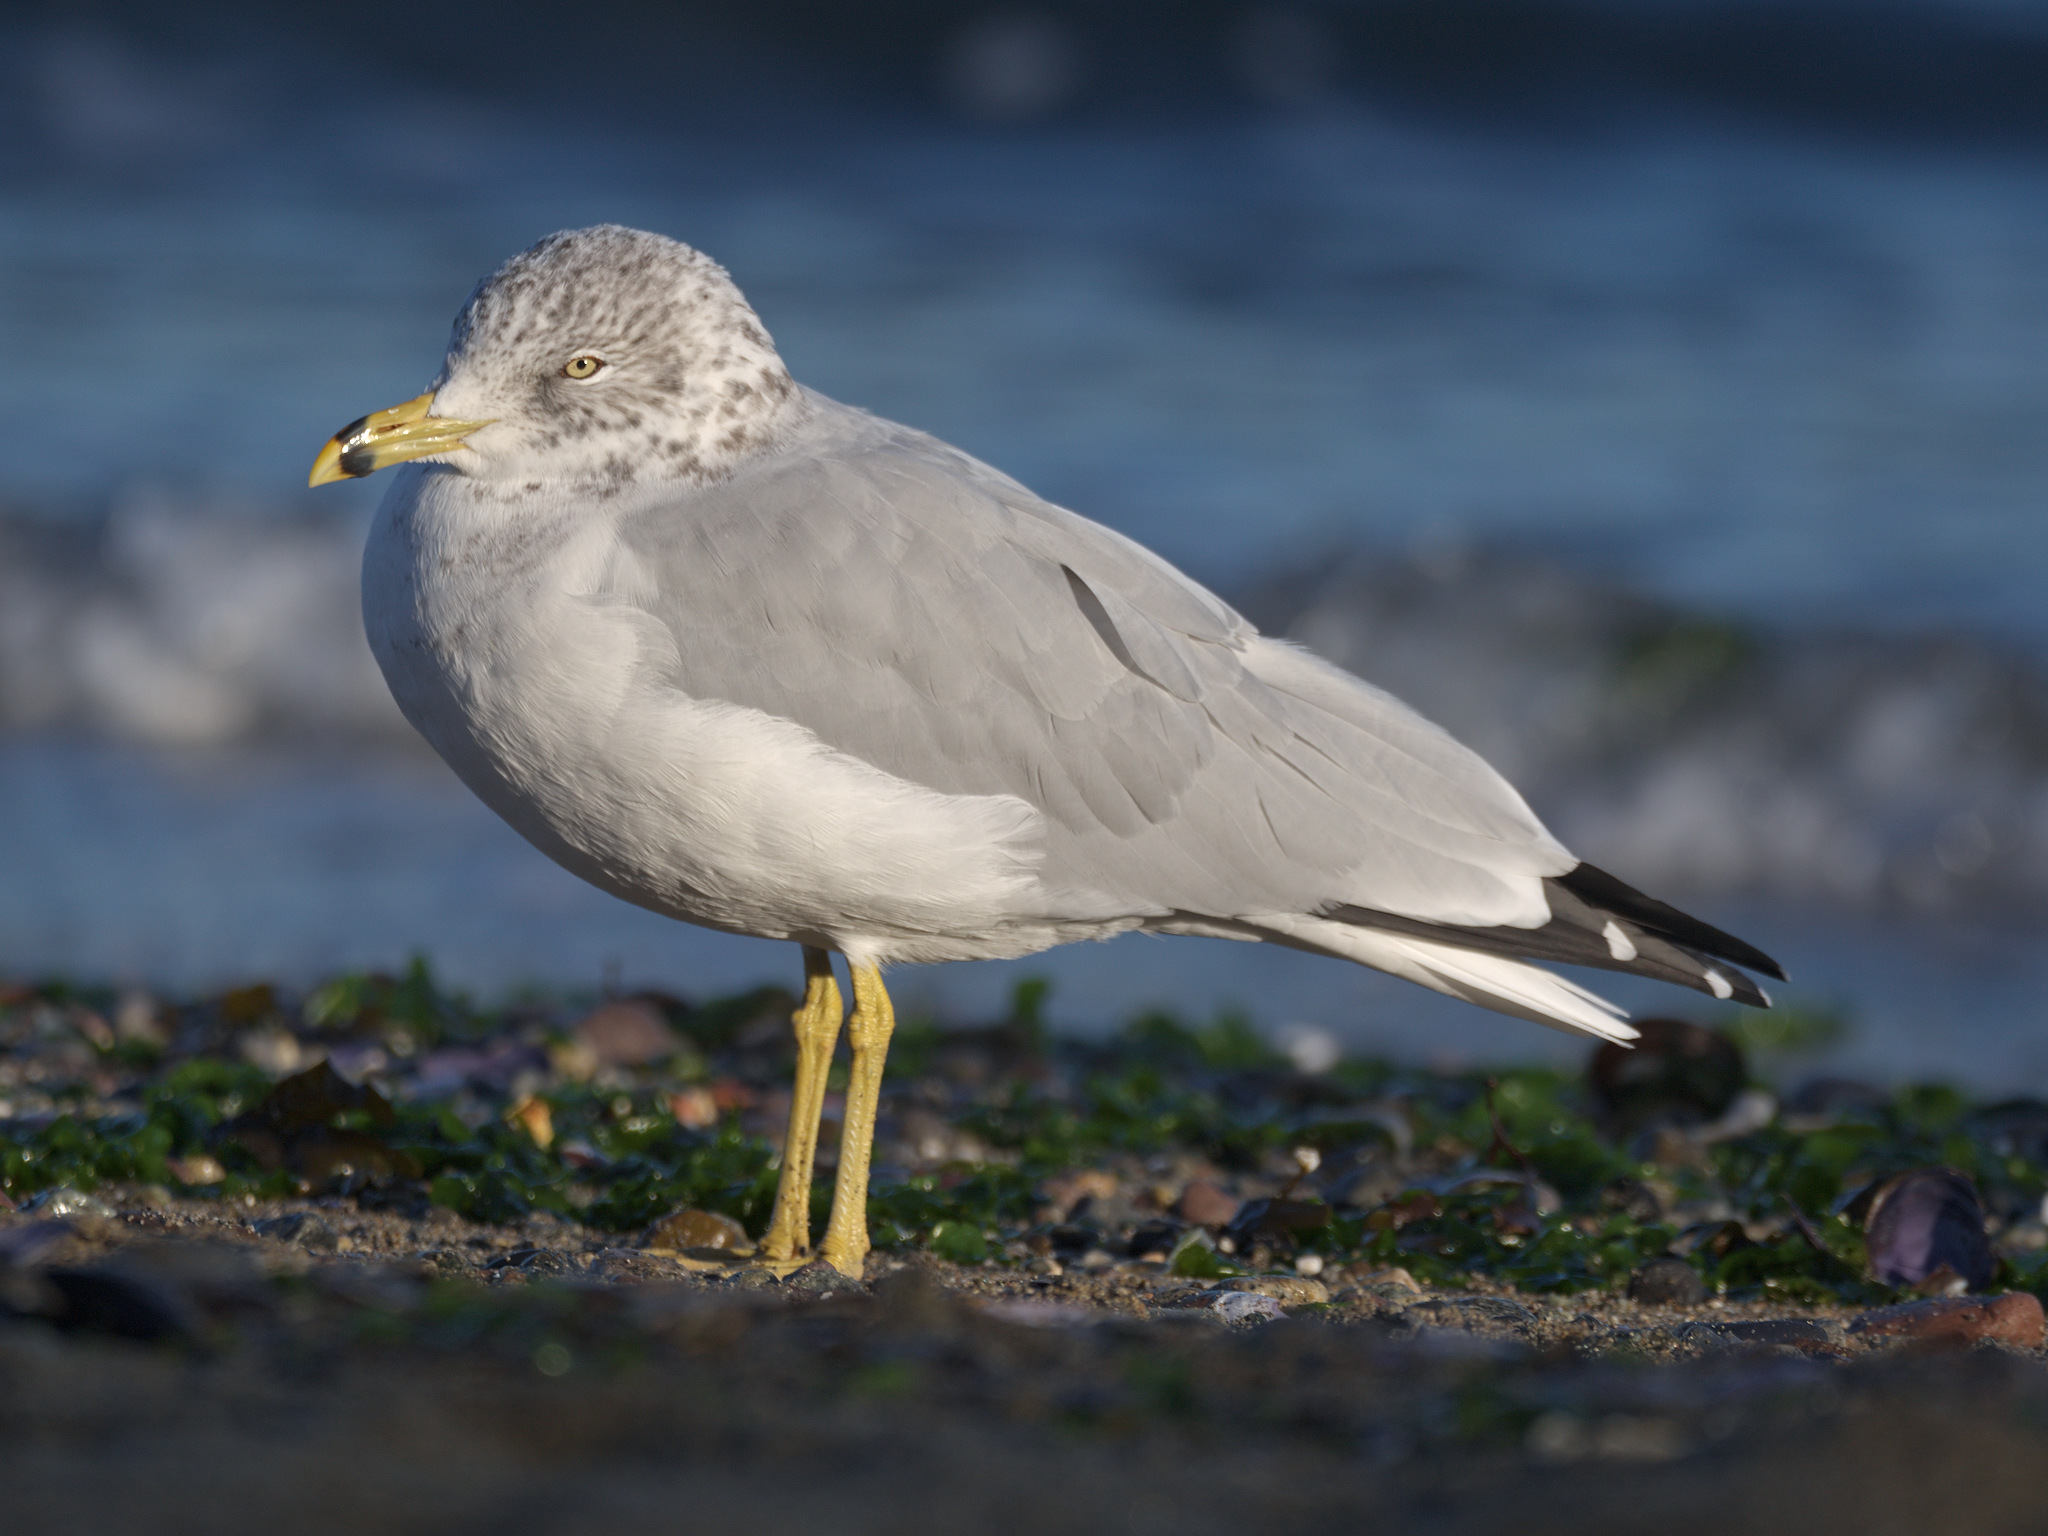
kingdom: Animalia
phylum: Chordata
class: Aves
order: Charadriiformes
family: Laridae
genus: Larus
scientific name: Larus delawarensis
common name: Ring-billed gull
